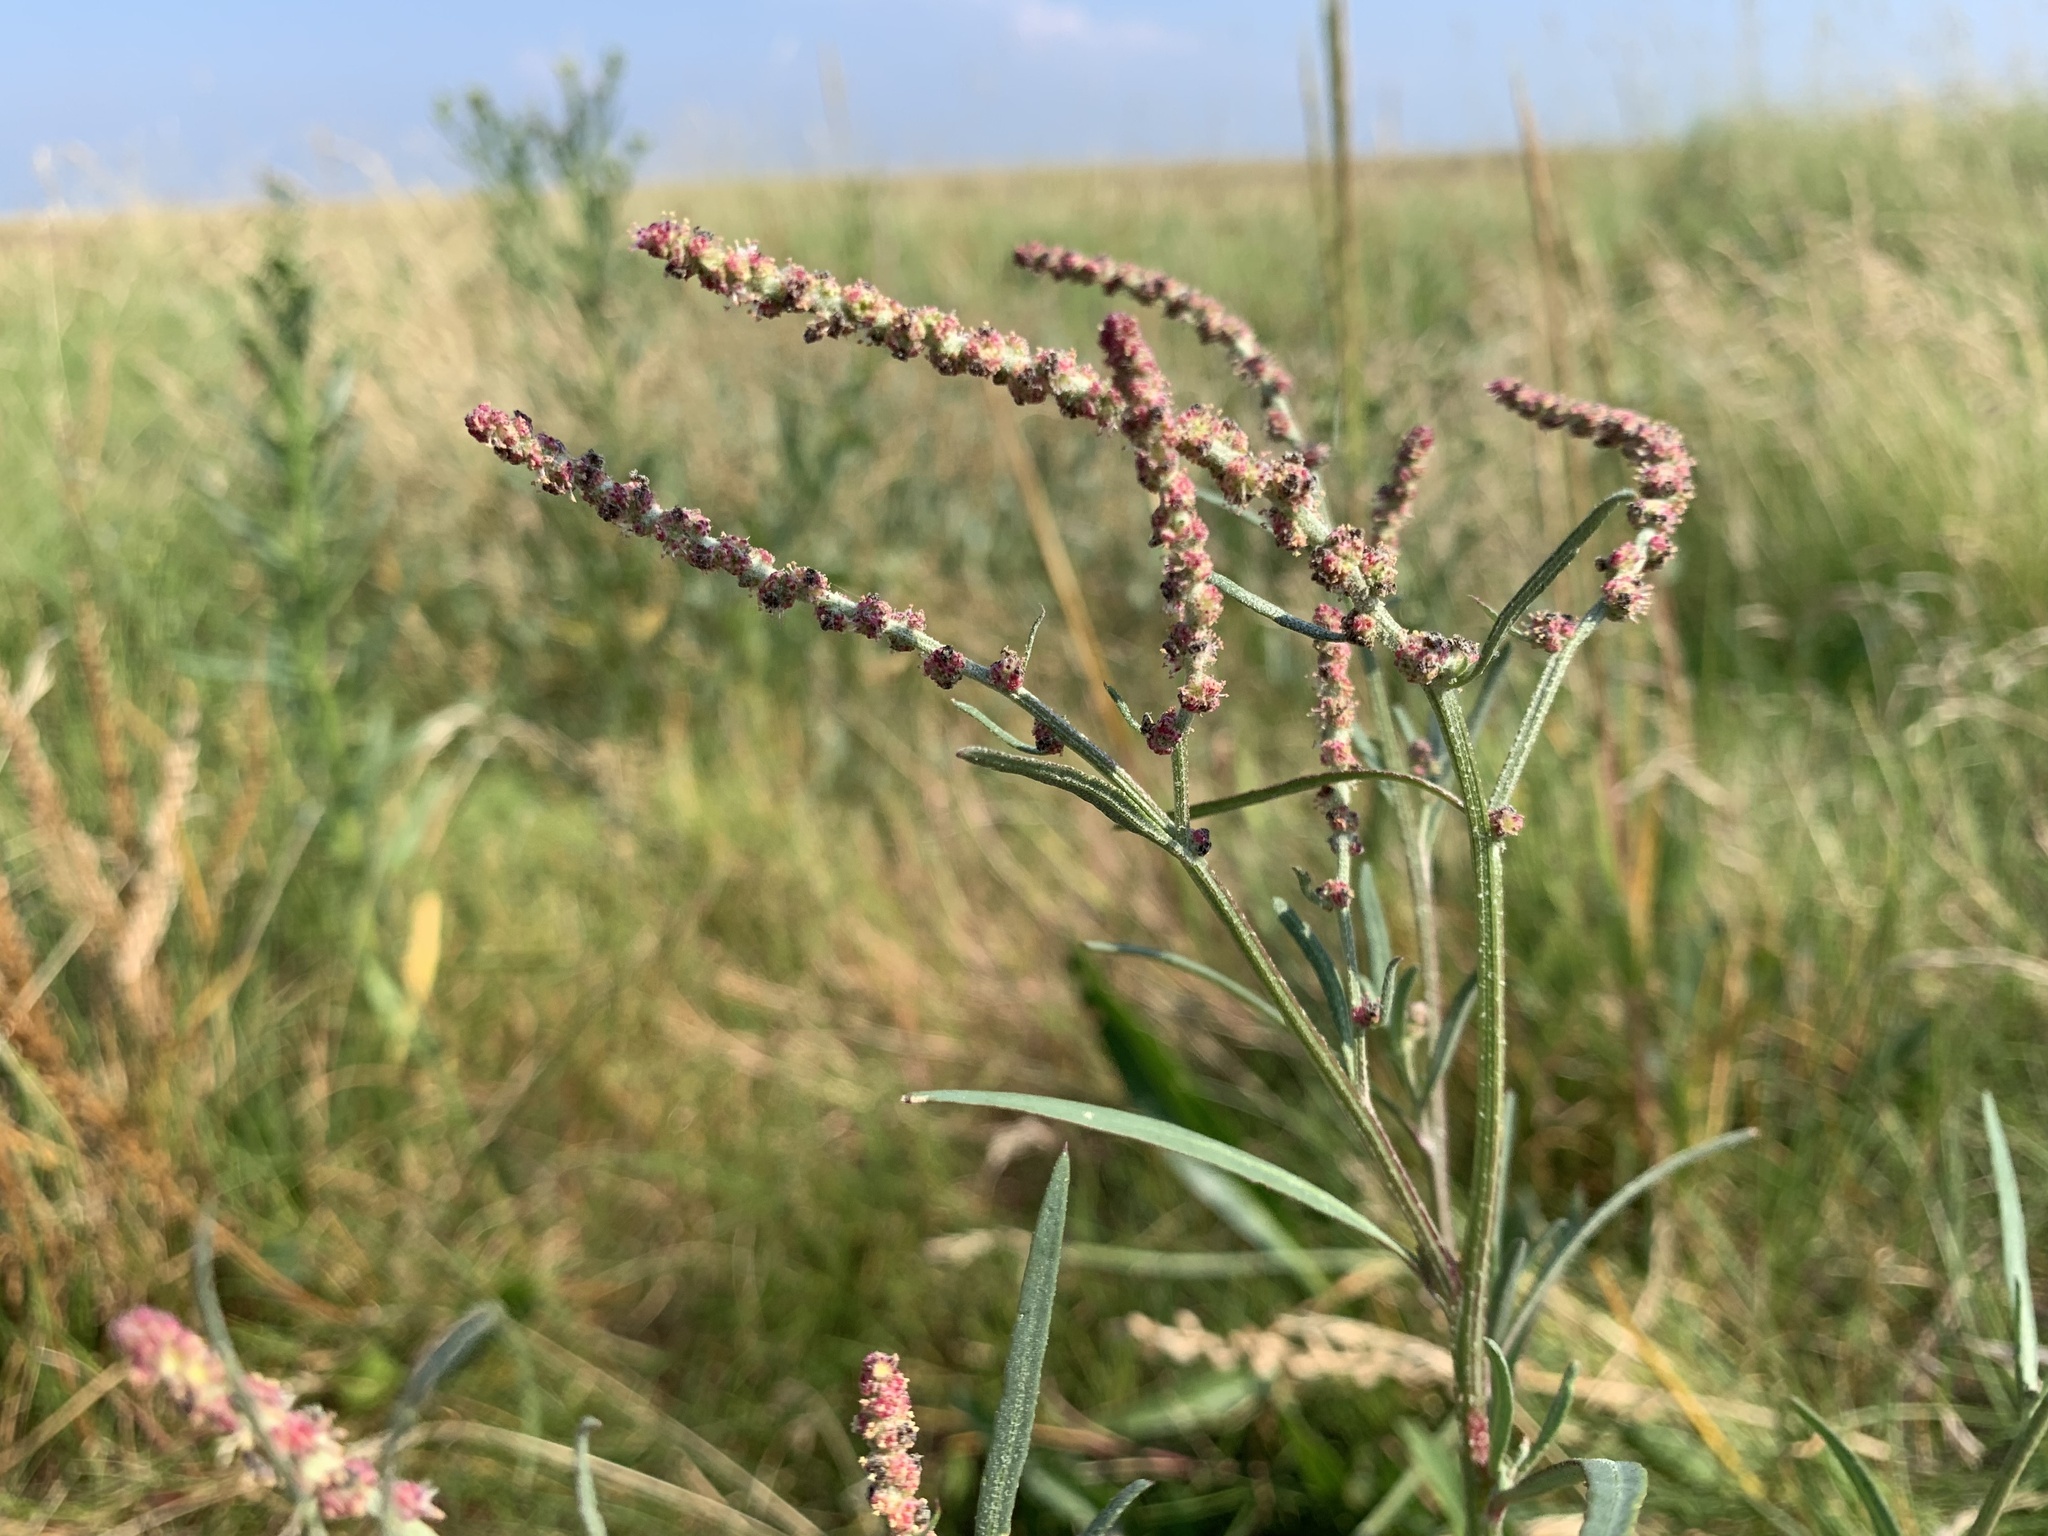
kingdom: Plantae
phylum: Tracheophyta
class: Magnoliopsida
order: Caryophyllales
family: Amaranthaceae
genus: Atriplex
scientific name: Atriplex littoralis
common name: Grass-leaved orache
